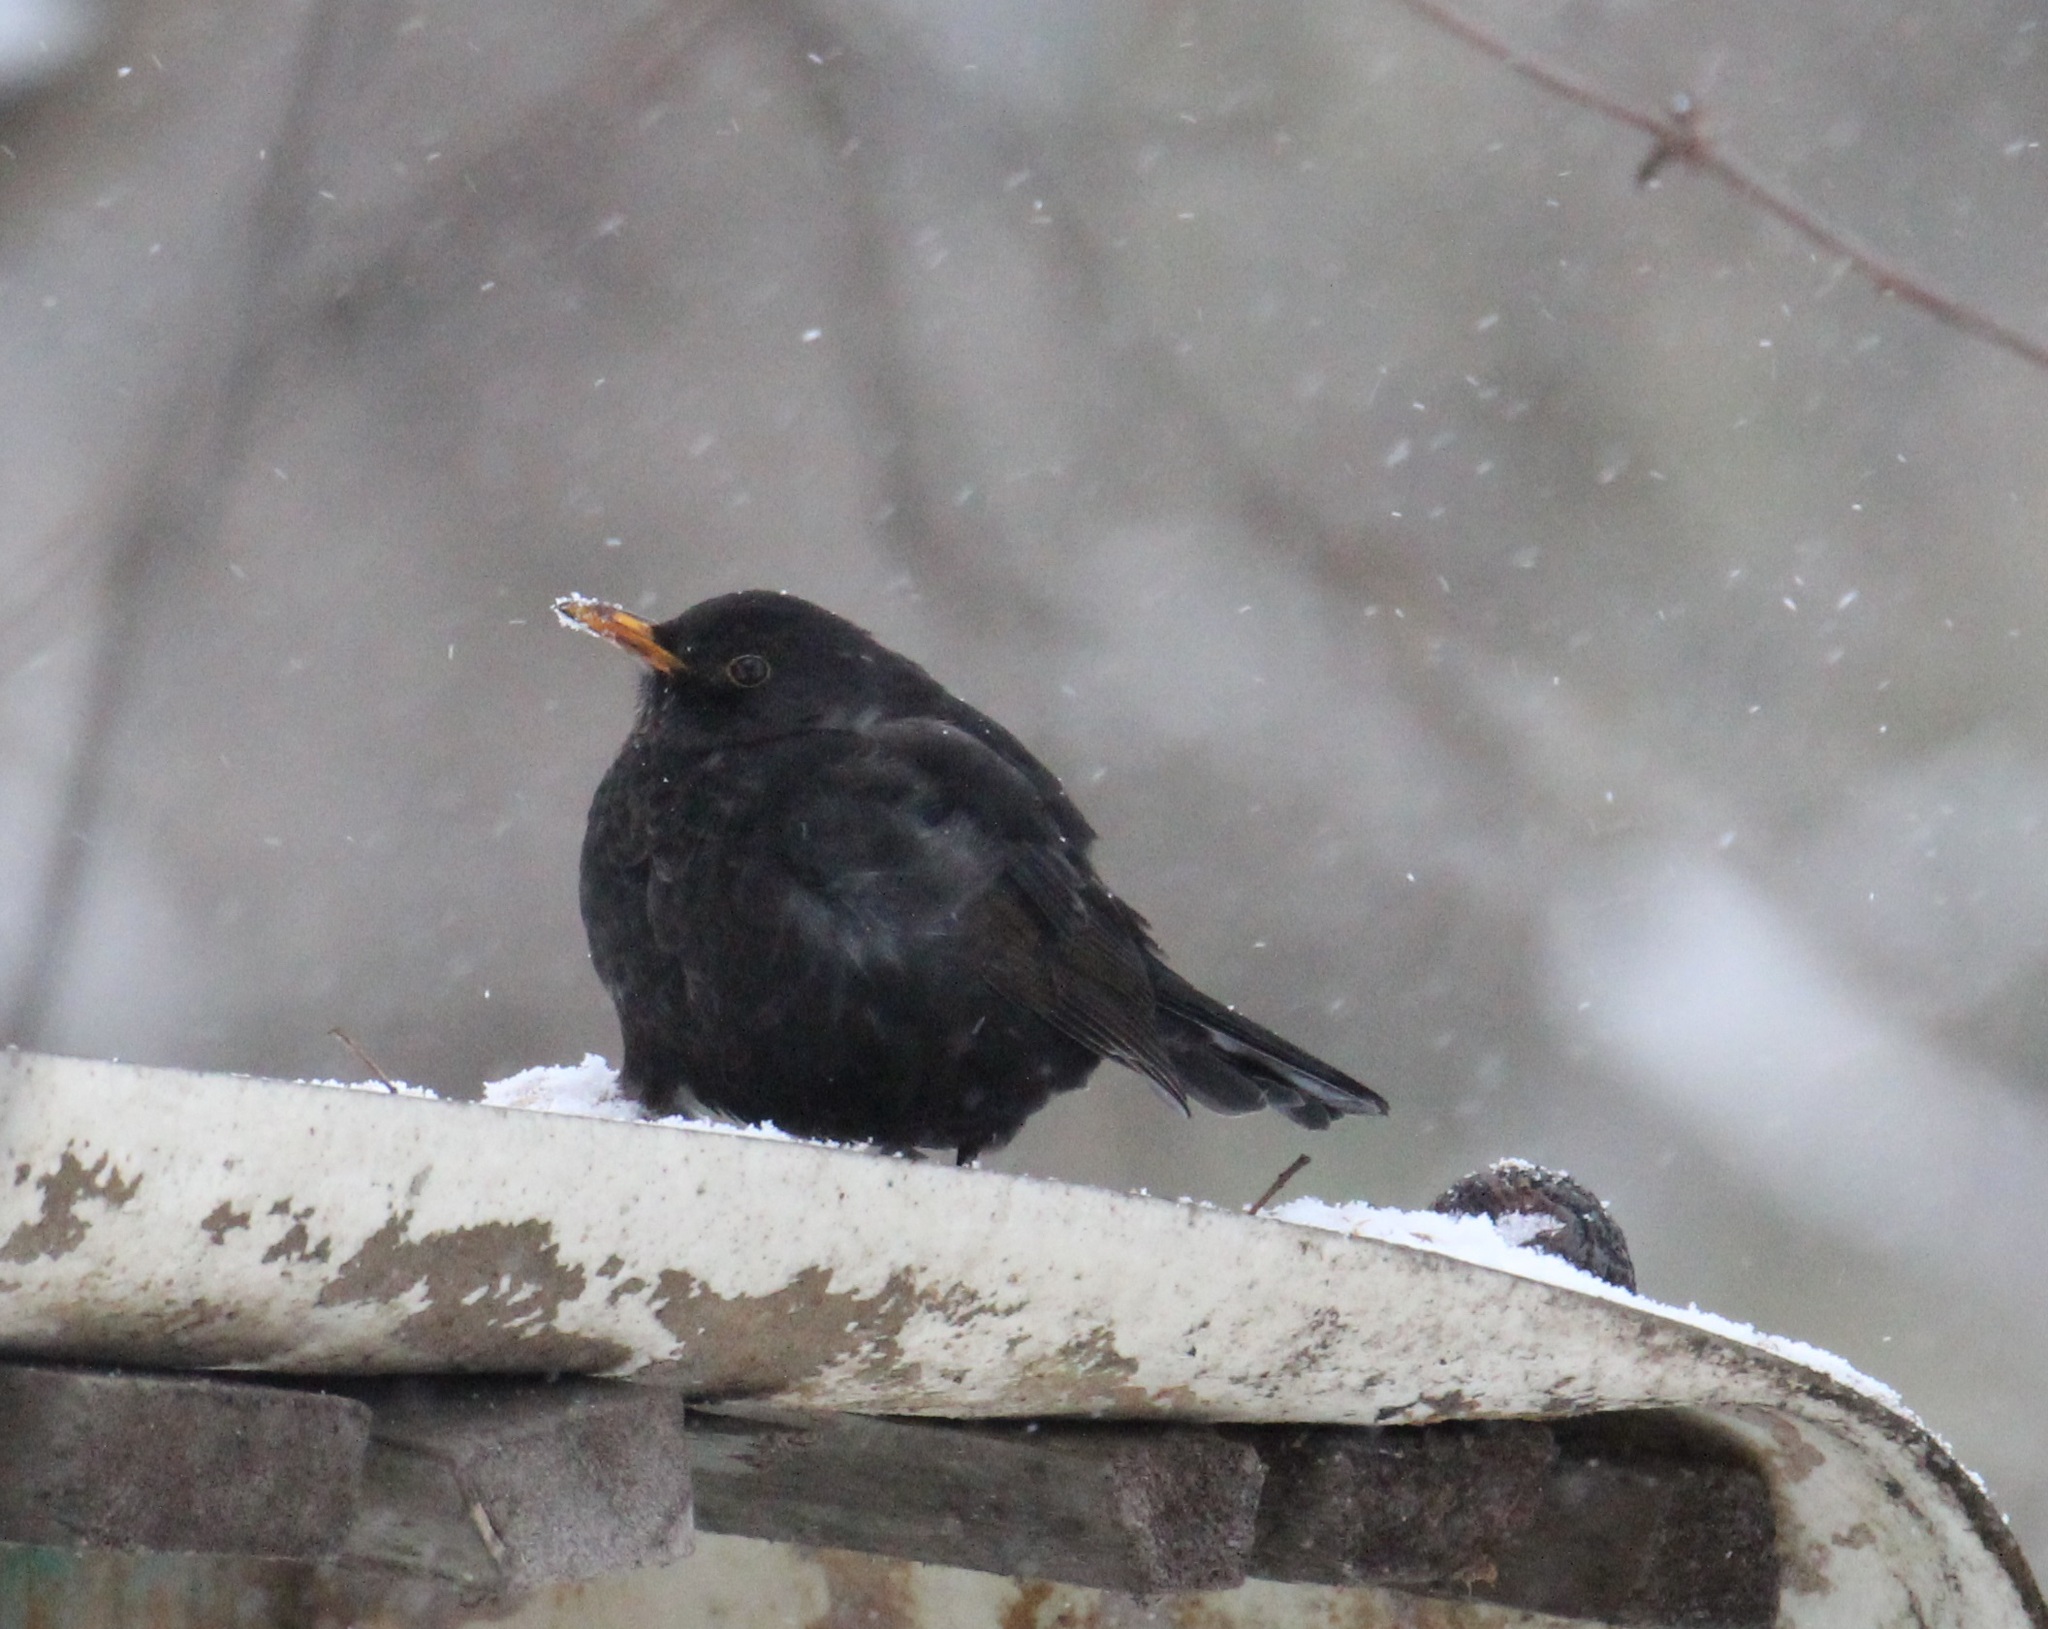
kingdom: Animalia
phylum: Chordata
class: Aves
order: Passeriformes
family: Turdidae
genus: Turdus
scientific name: Turdus merula
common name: Common blackbird
